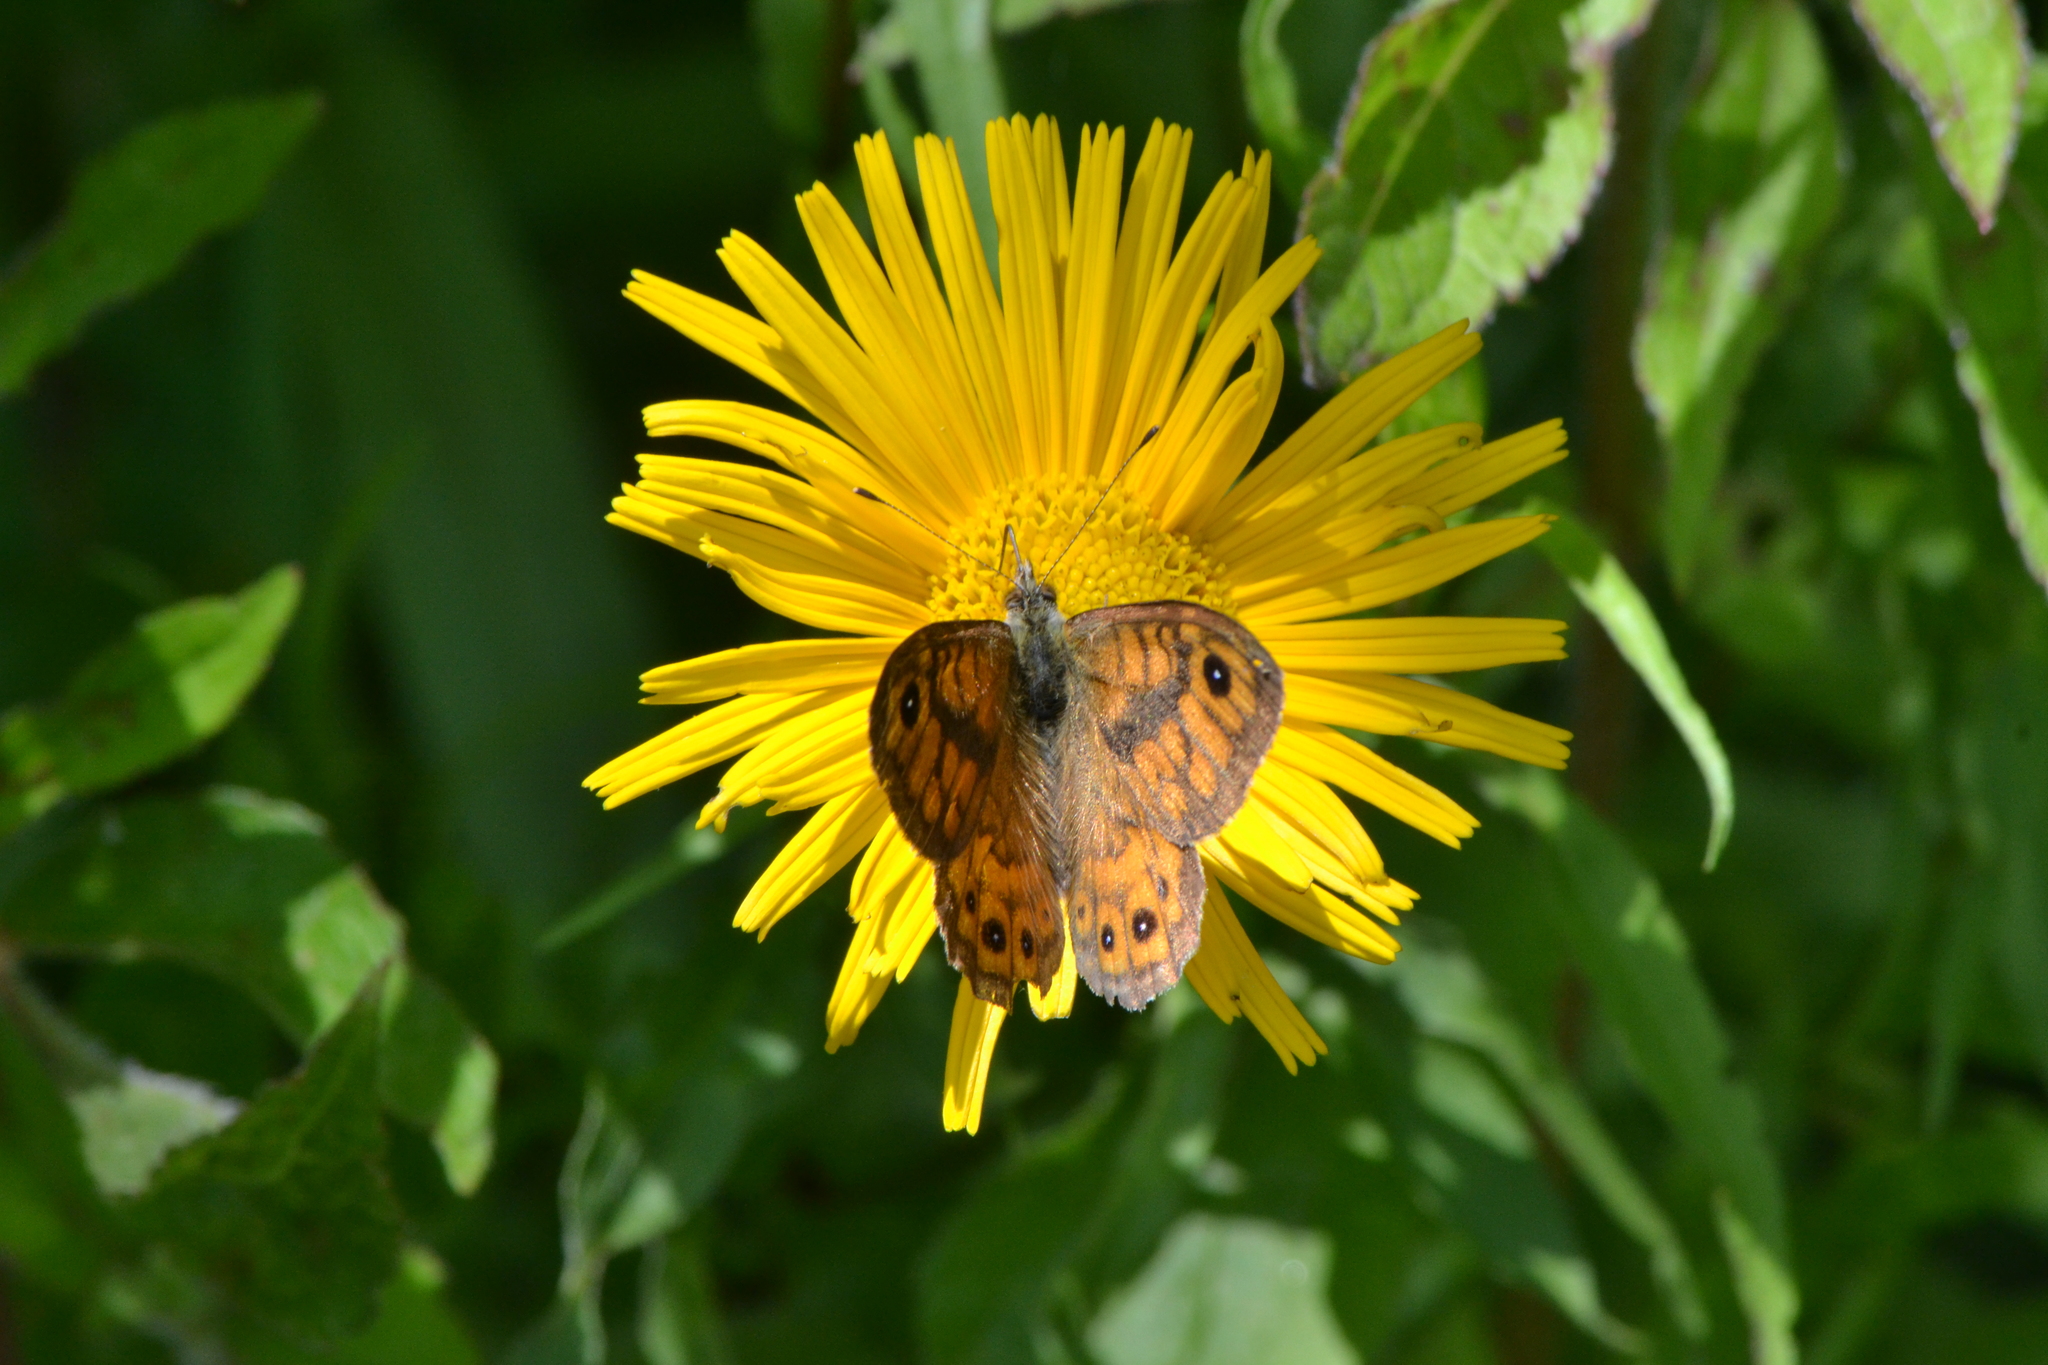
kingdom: Animalia
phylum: Arthropoda
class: Insecta
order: Lepidoptera
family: Nymphalidae
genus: Pararge
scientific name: Pararge Lasiommata megera
